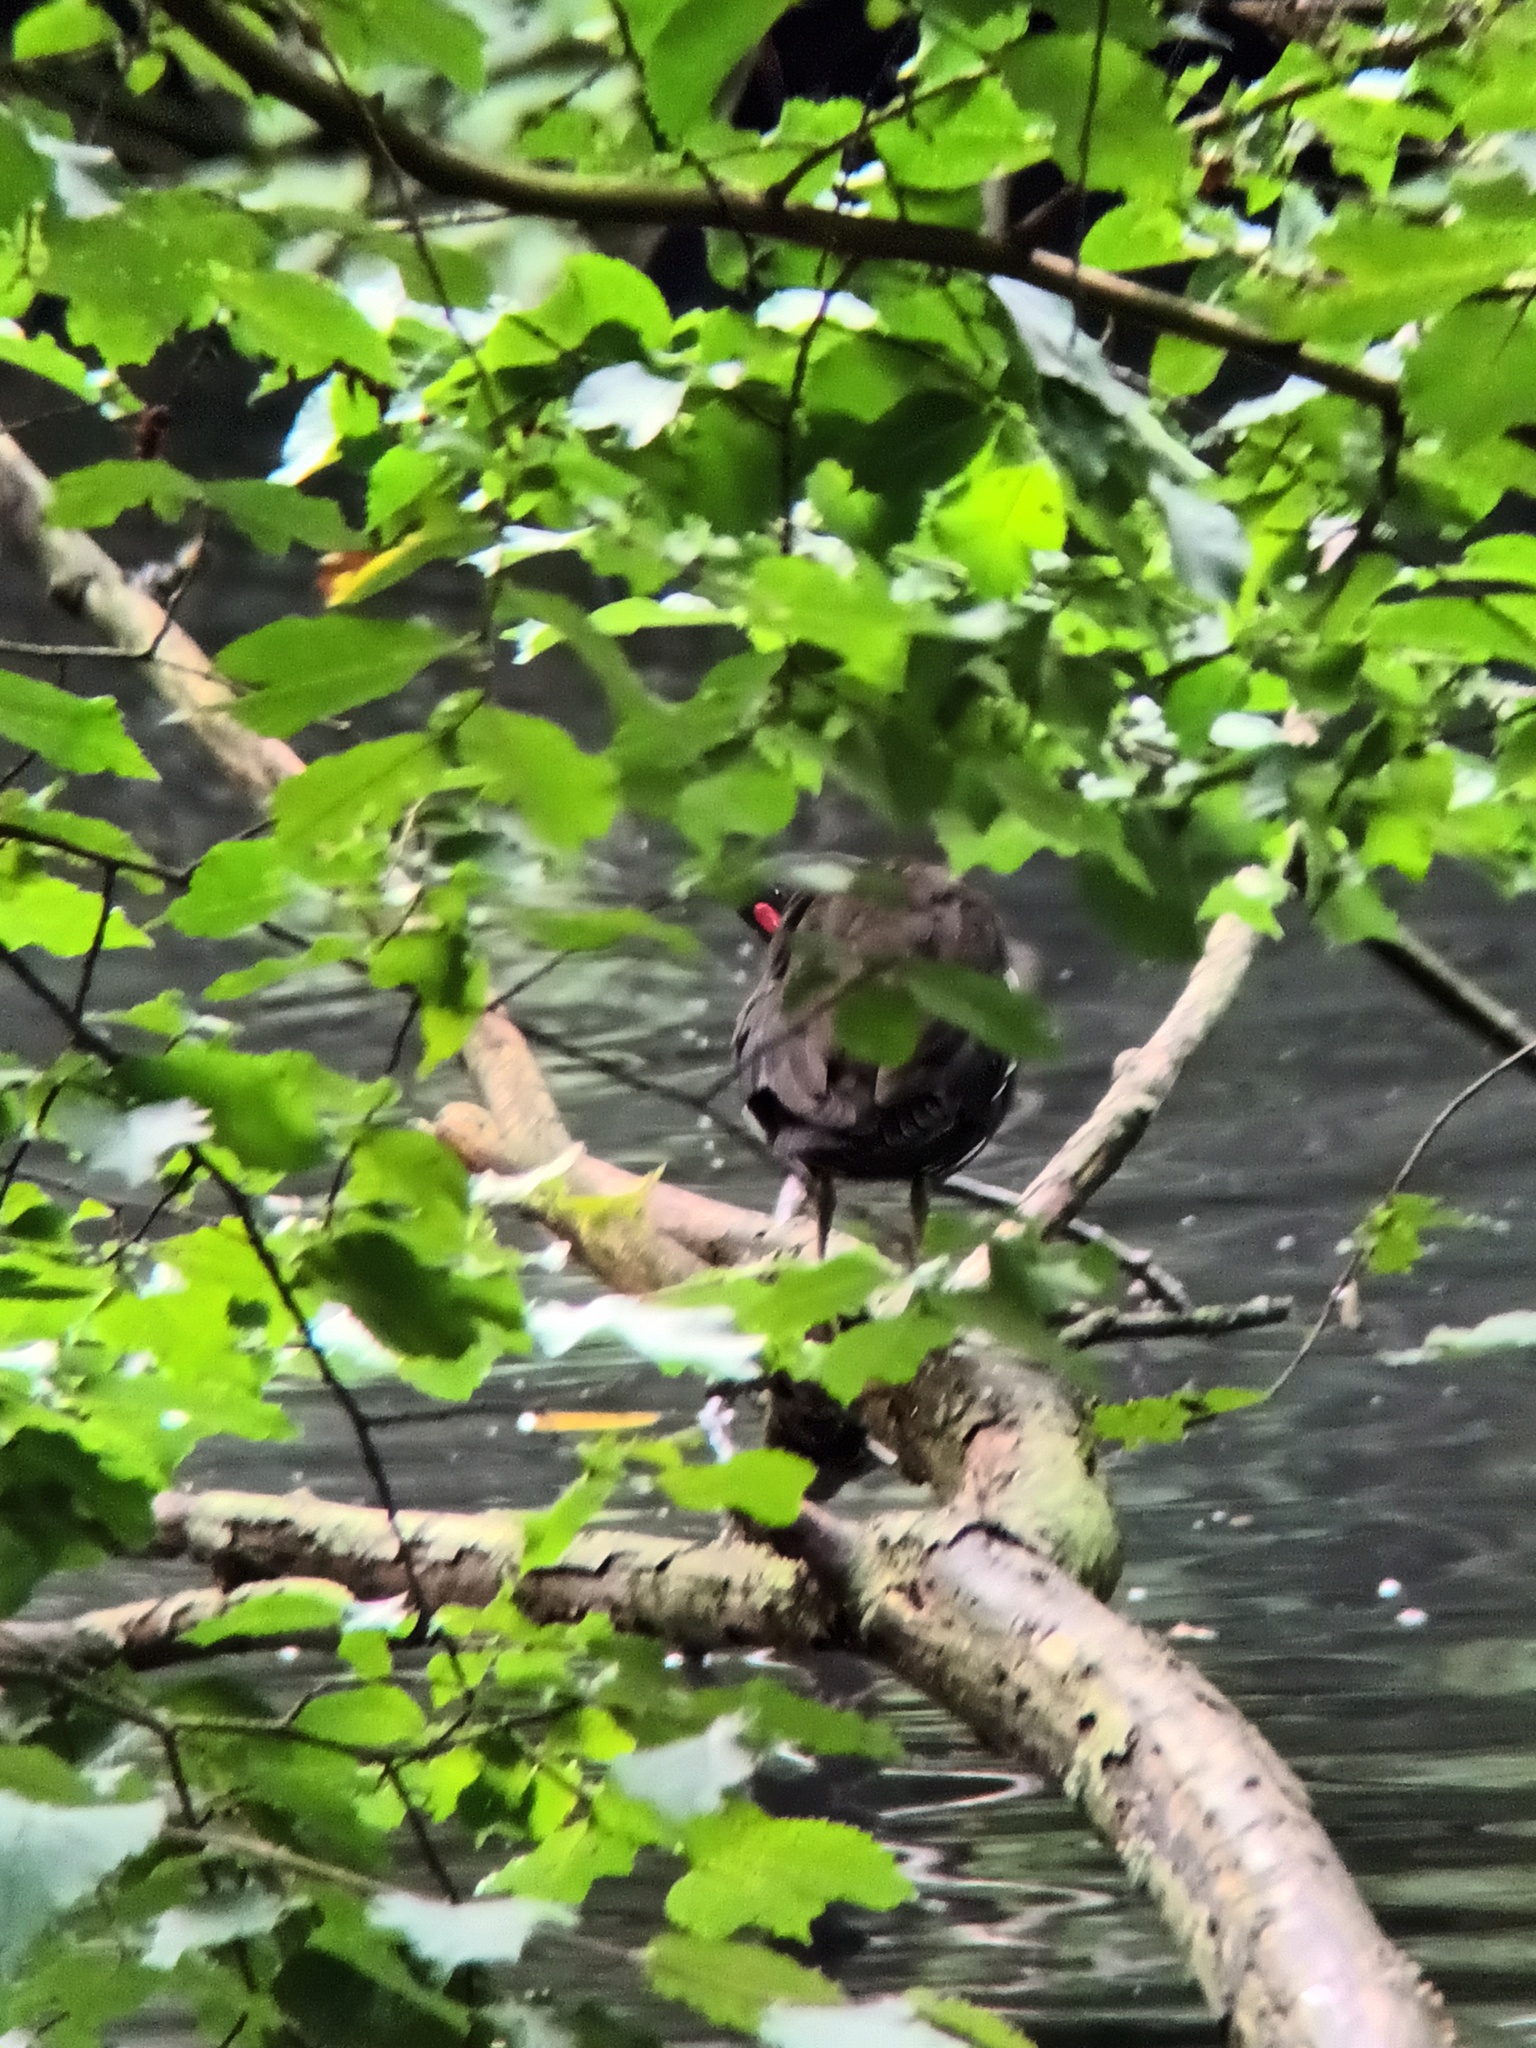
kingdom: Animalia
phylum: Chordata
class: Aves
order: Gruiformes
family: Rallidae
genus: Gallinula
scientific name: Gallinula chloropus
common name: Common moorhen
